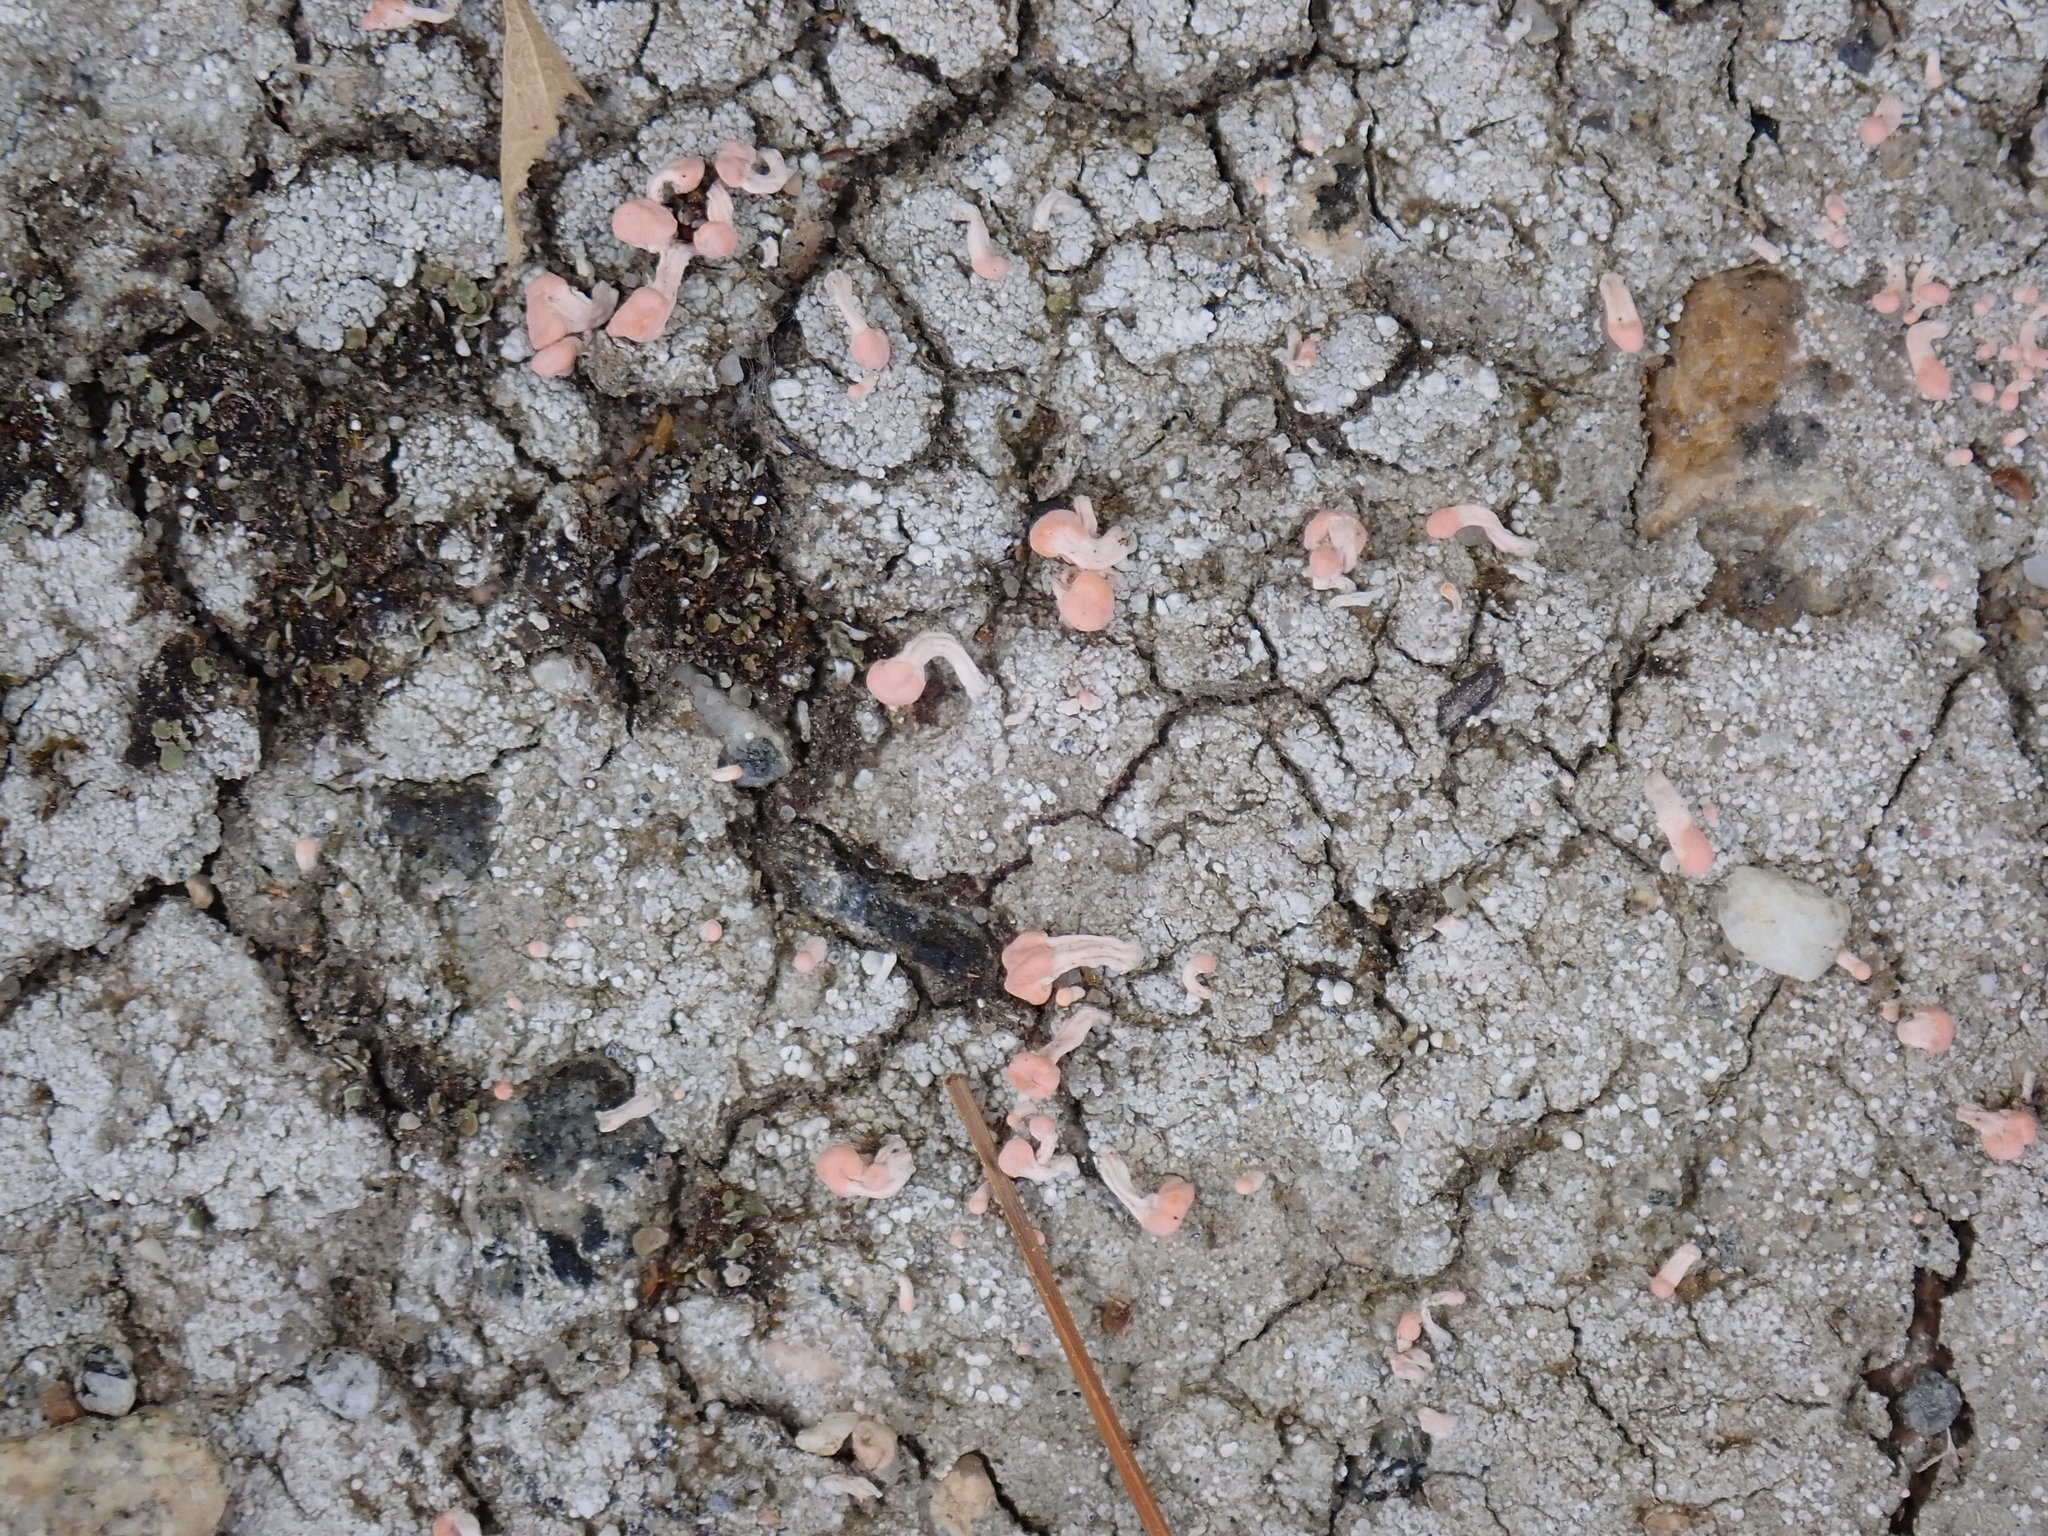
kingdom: Fungi
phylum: Ascomycota
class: Lecanoromycetes
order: Pertusariales
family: Icmadophilaceae
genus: Dibaeis
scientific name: Dibaeis baeomyces
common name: Pink earth lichen
